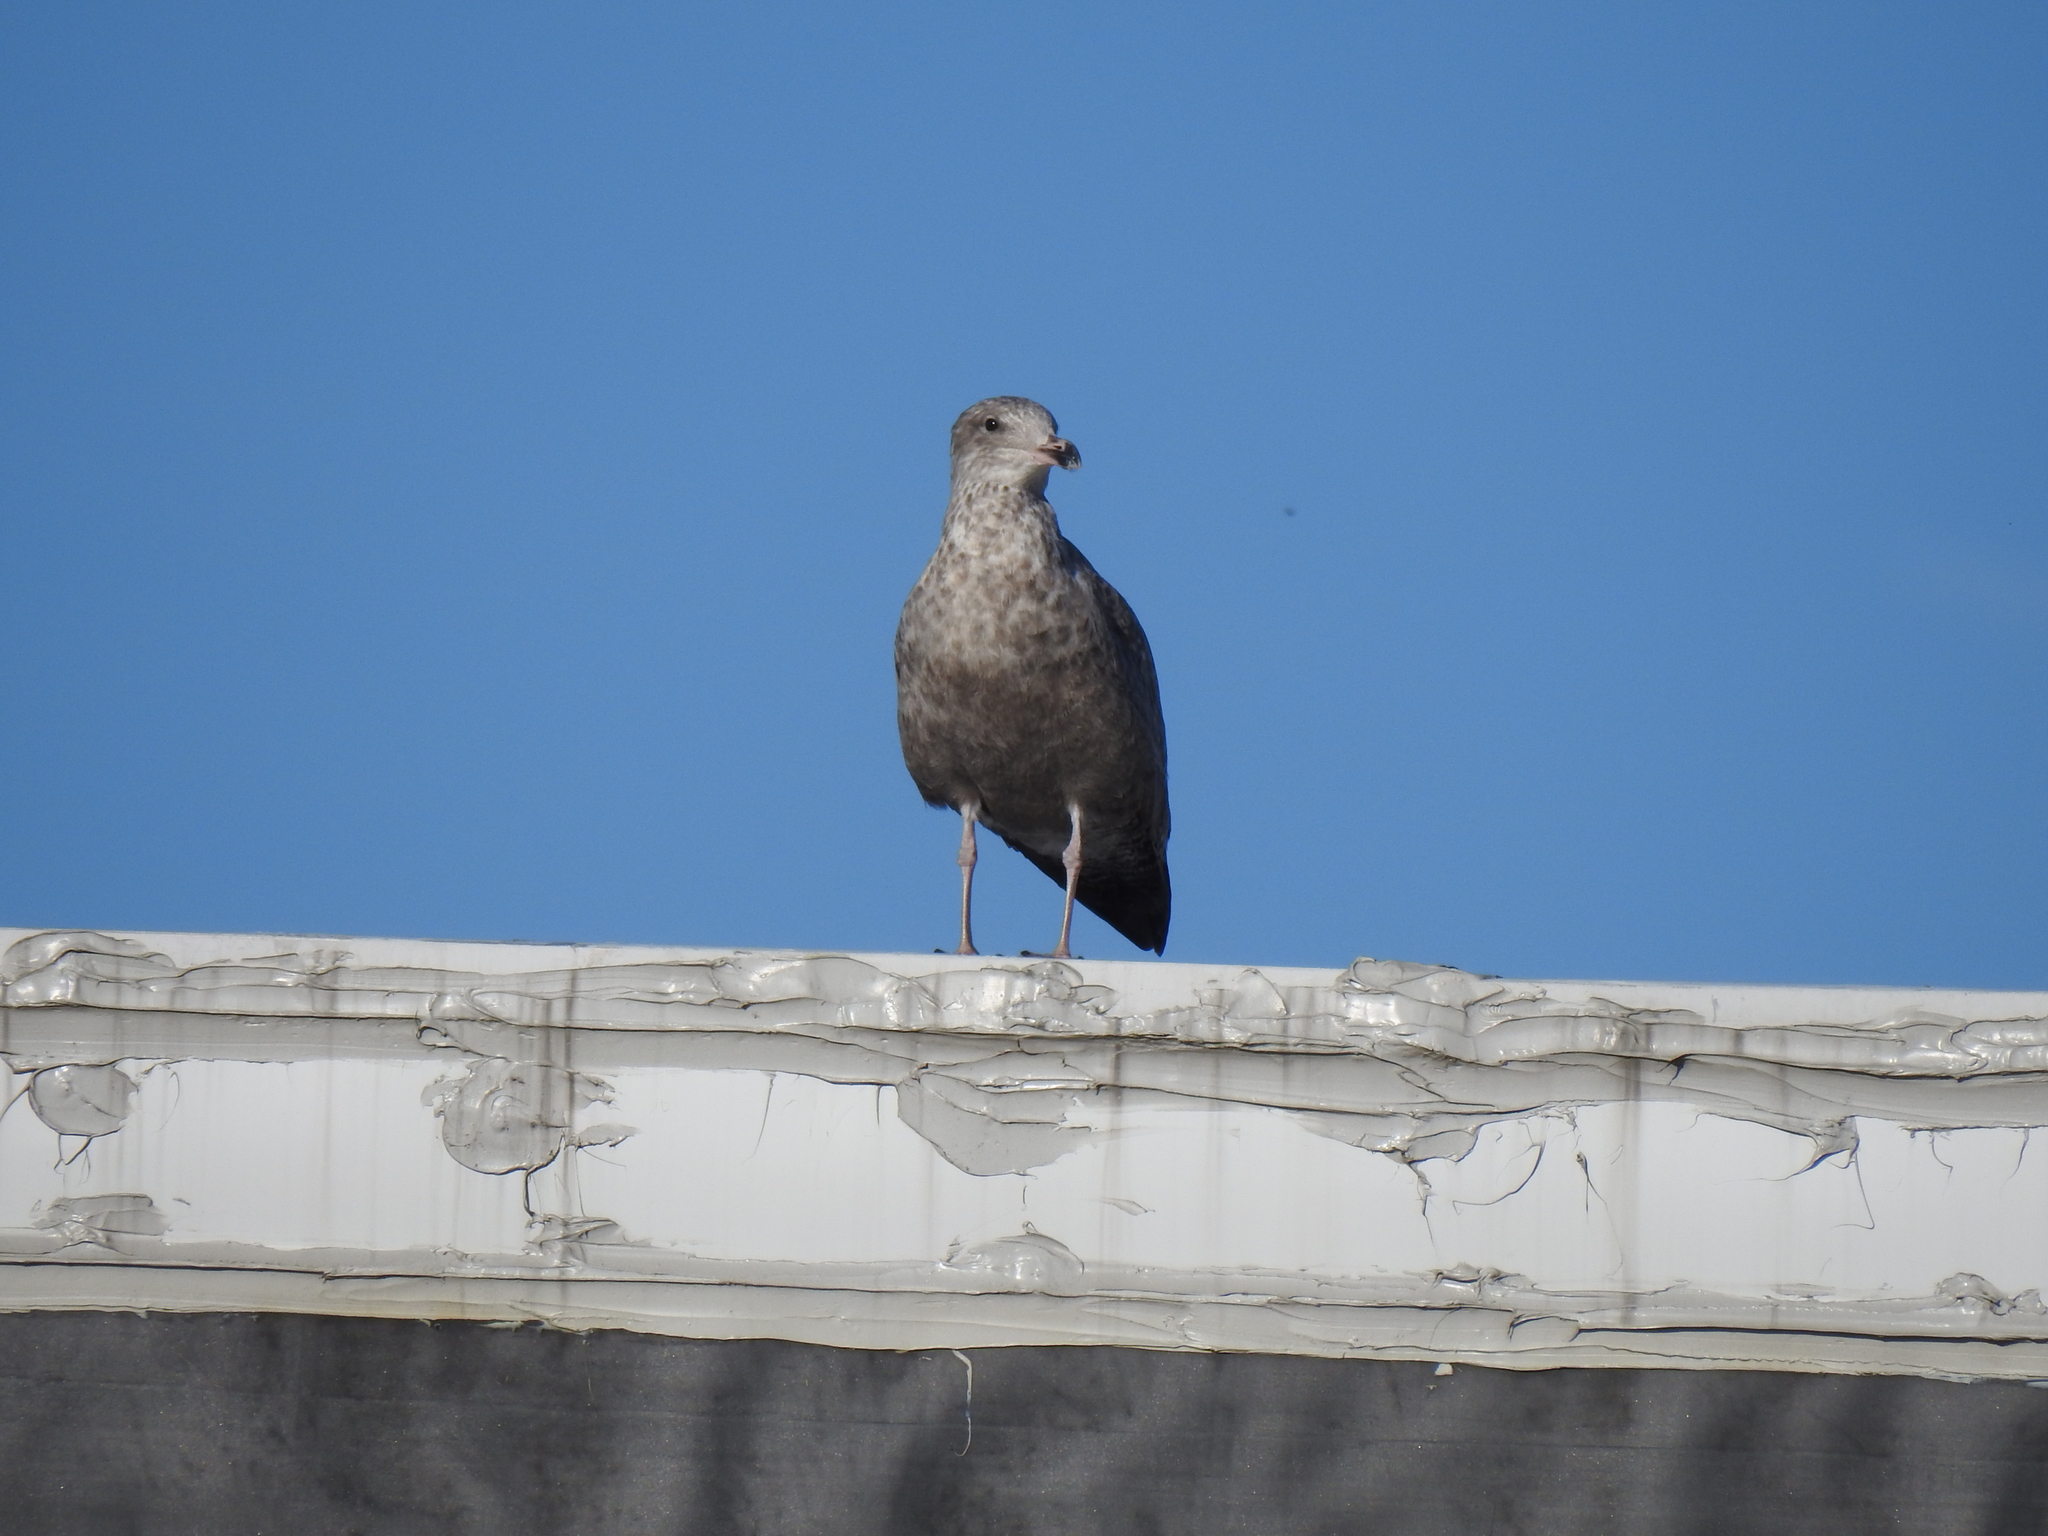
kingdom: Animalia
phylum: Chordata
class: Aves
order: Charadriiformes
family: Laridae
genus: Larus
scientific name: Larus argentatus
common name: Herring gull
